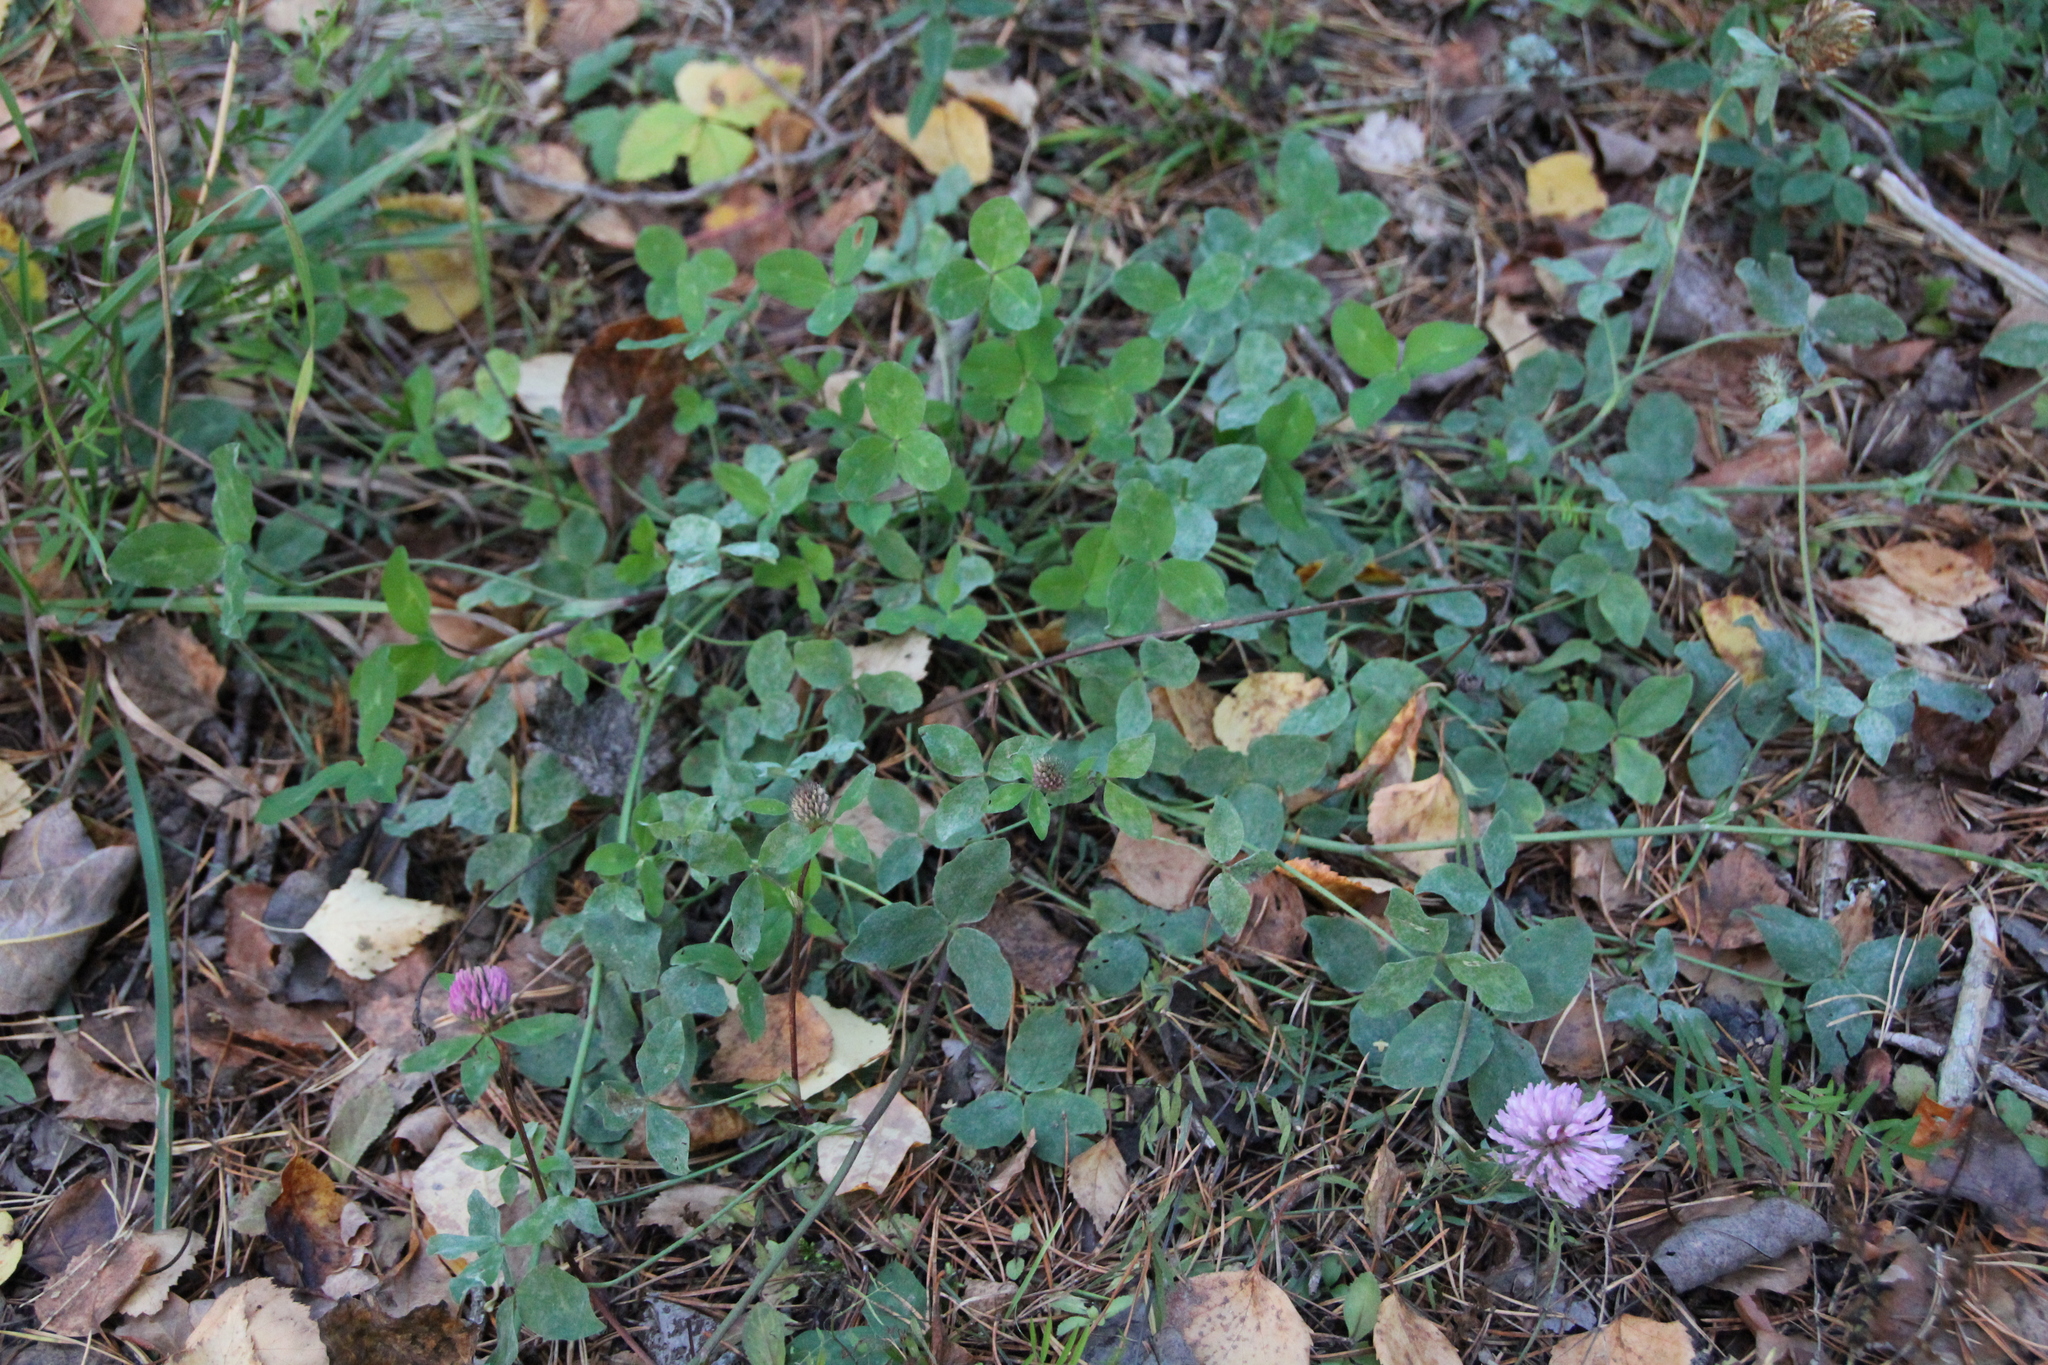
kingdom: Plantae
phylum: Tracheophyta
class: Magnoliopsida
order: Fabales
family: Fabaceae
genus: Trifolium
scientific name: Trifolium pratense
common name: Red clover
